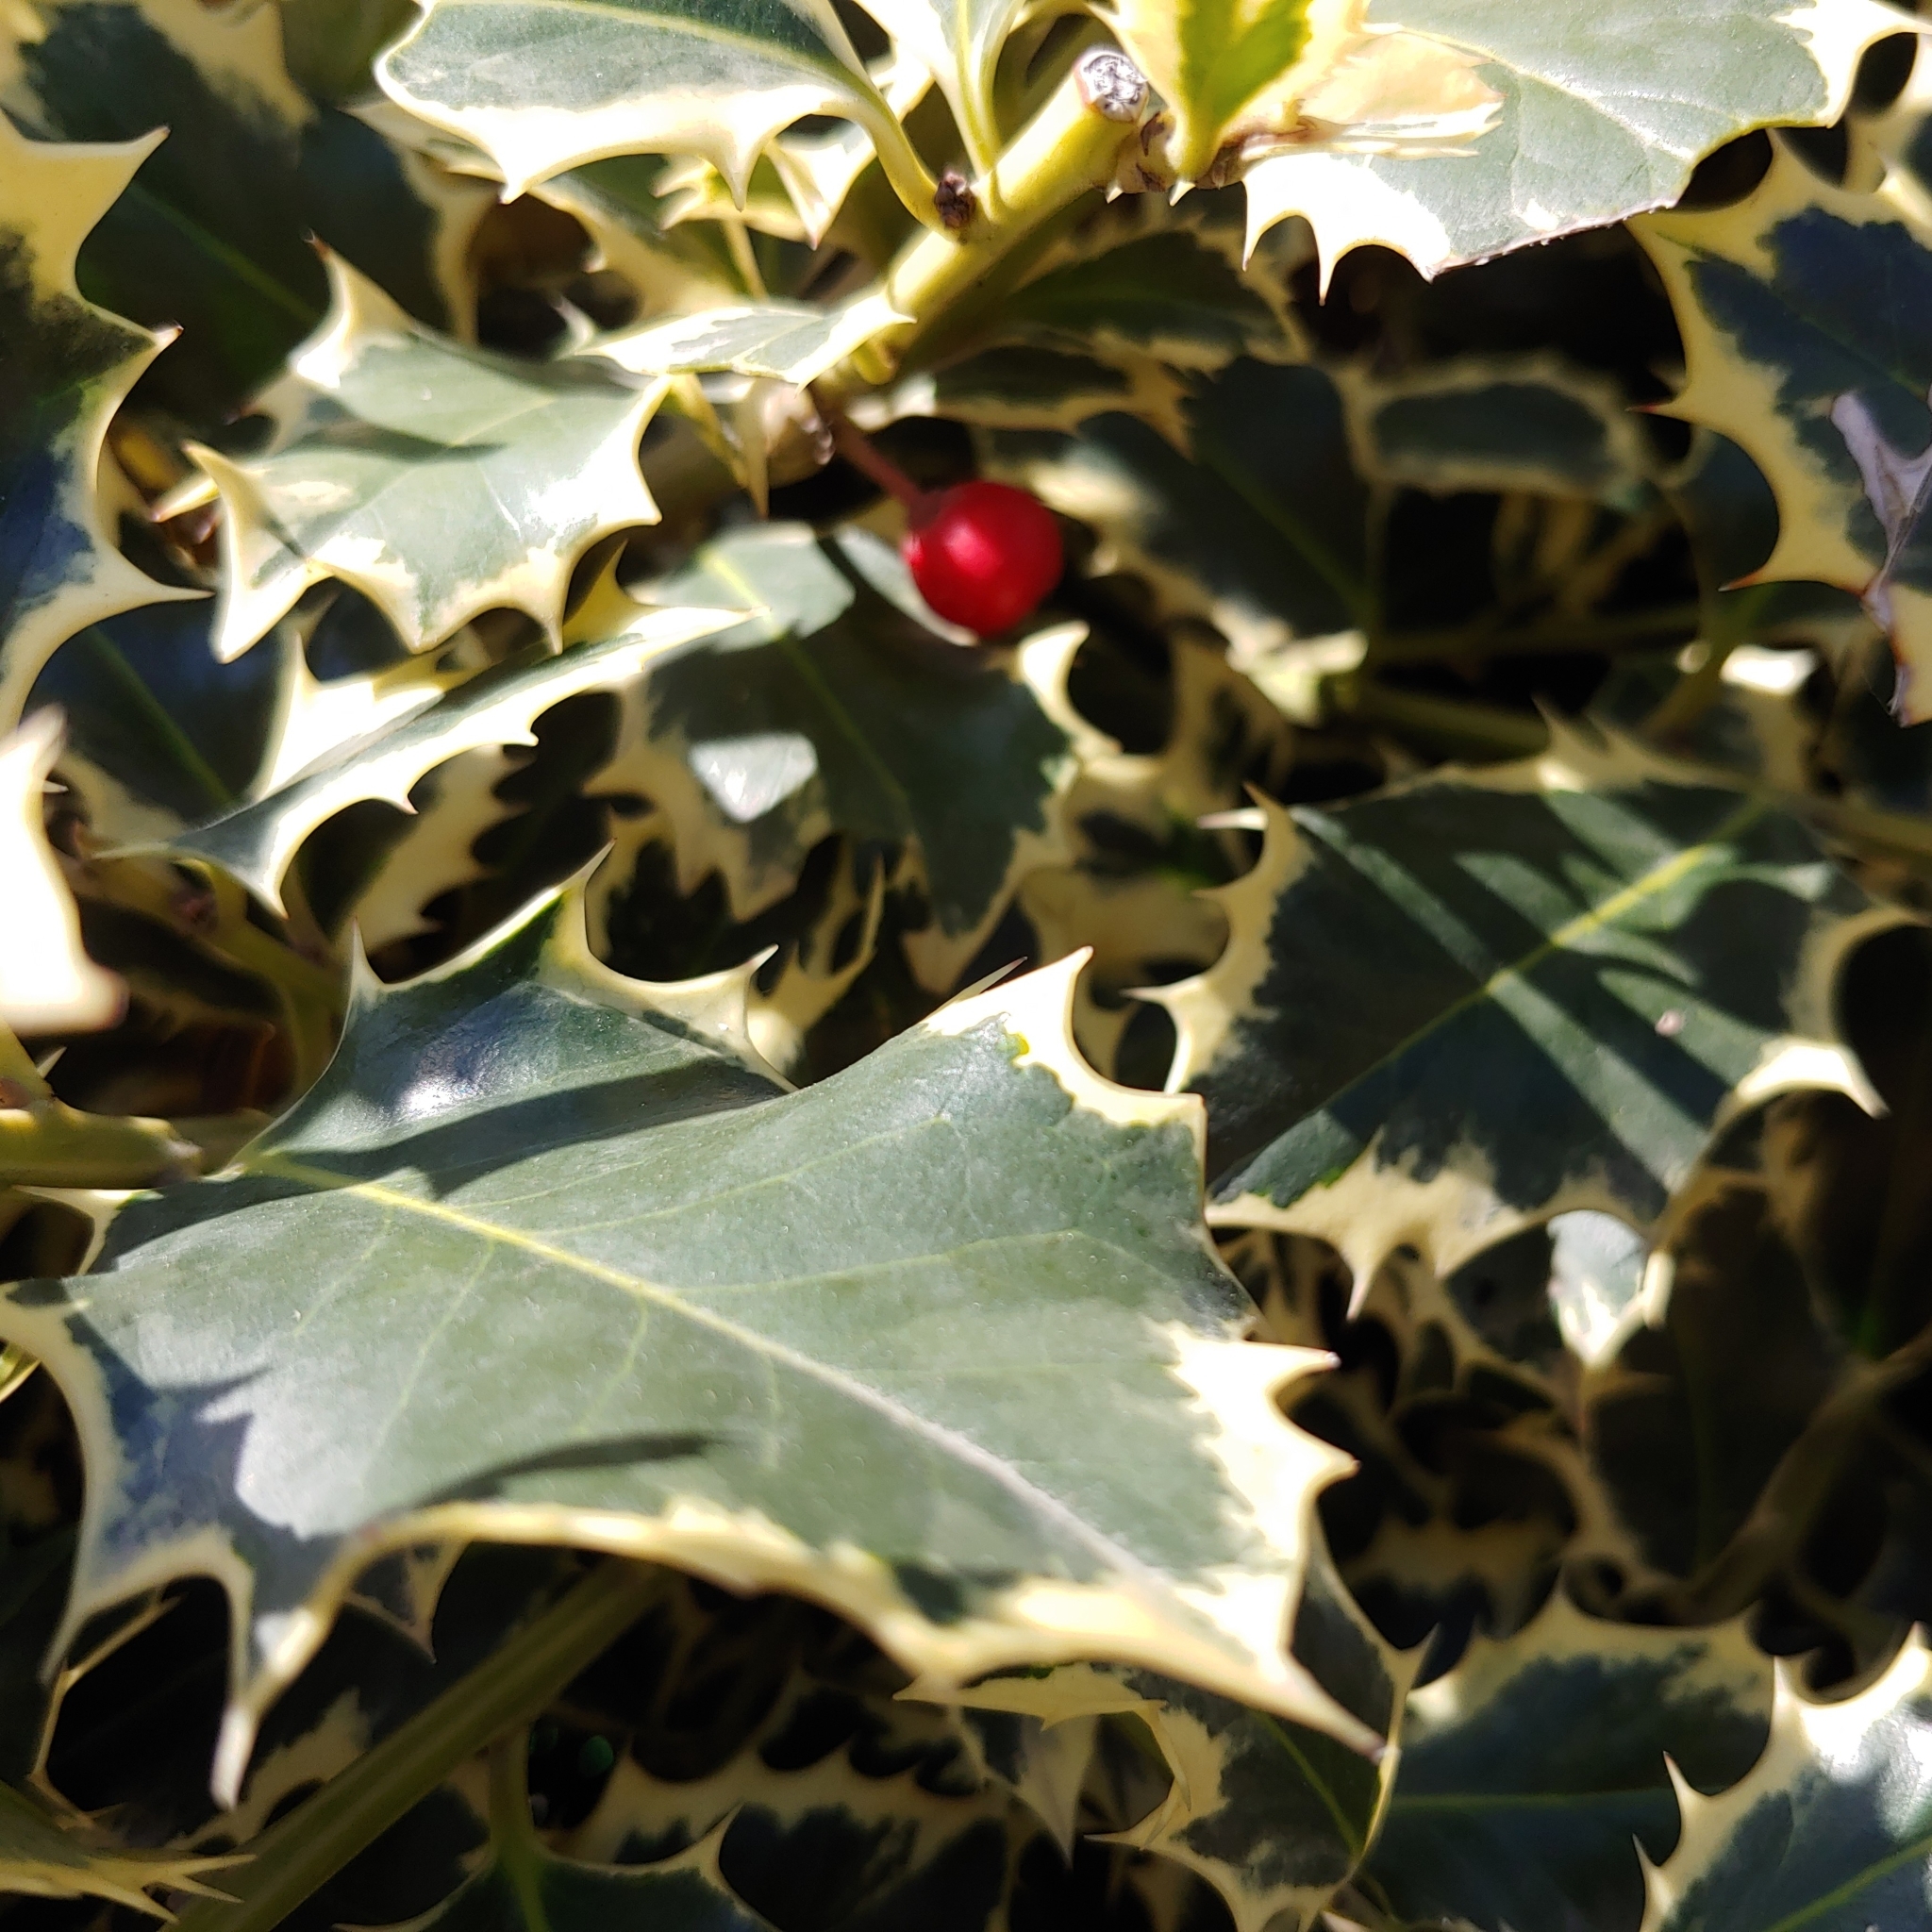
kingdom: Plantae
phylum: Tracheophyta
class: Magnoliopsida
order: Aquifoliales
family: Aquifoliaceae
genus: Ilex
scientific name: Ilex aquifolium
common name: English holly
